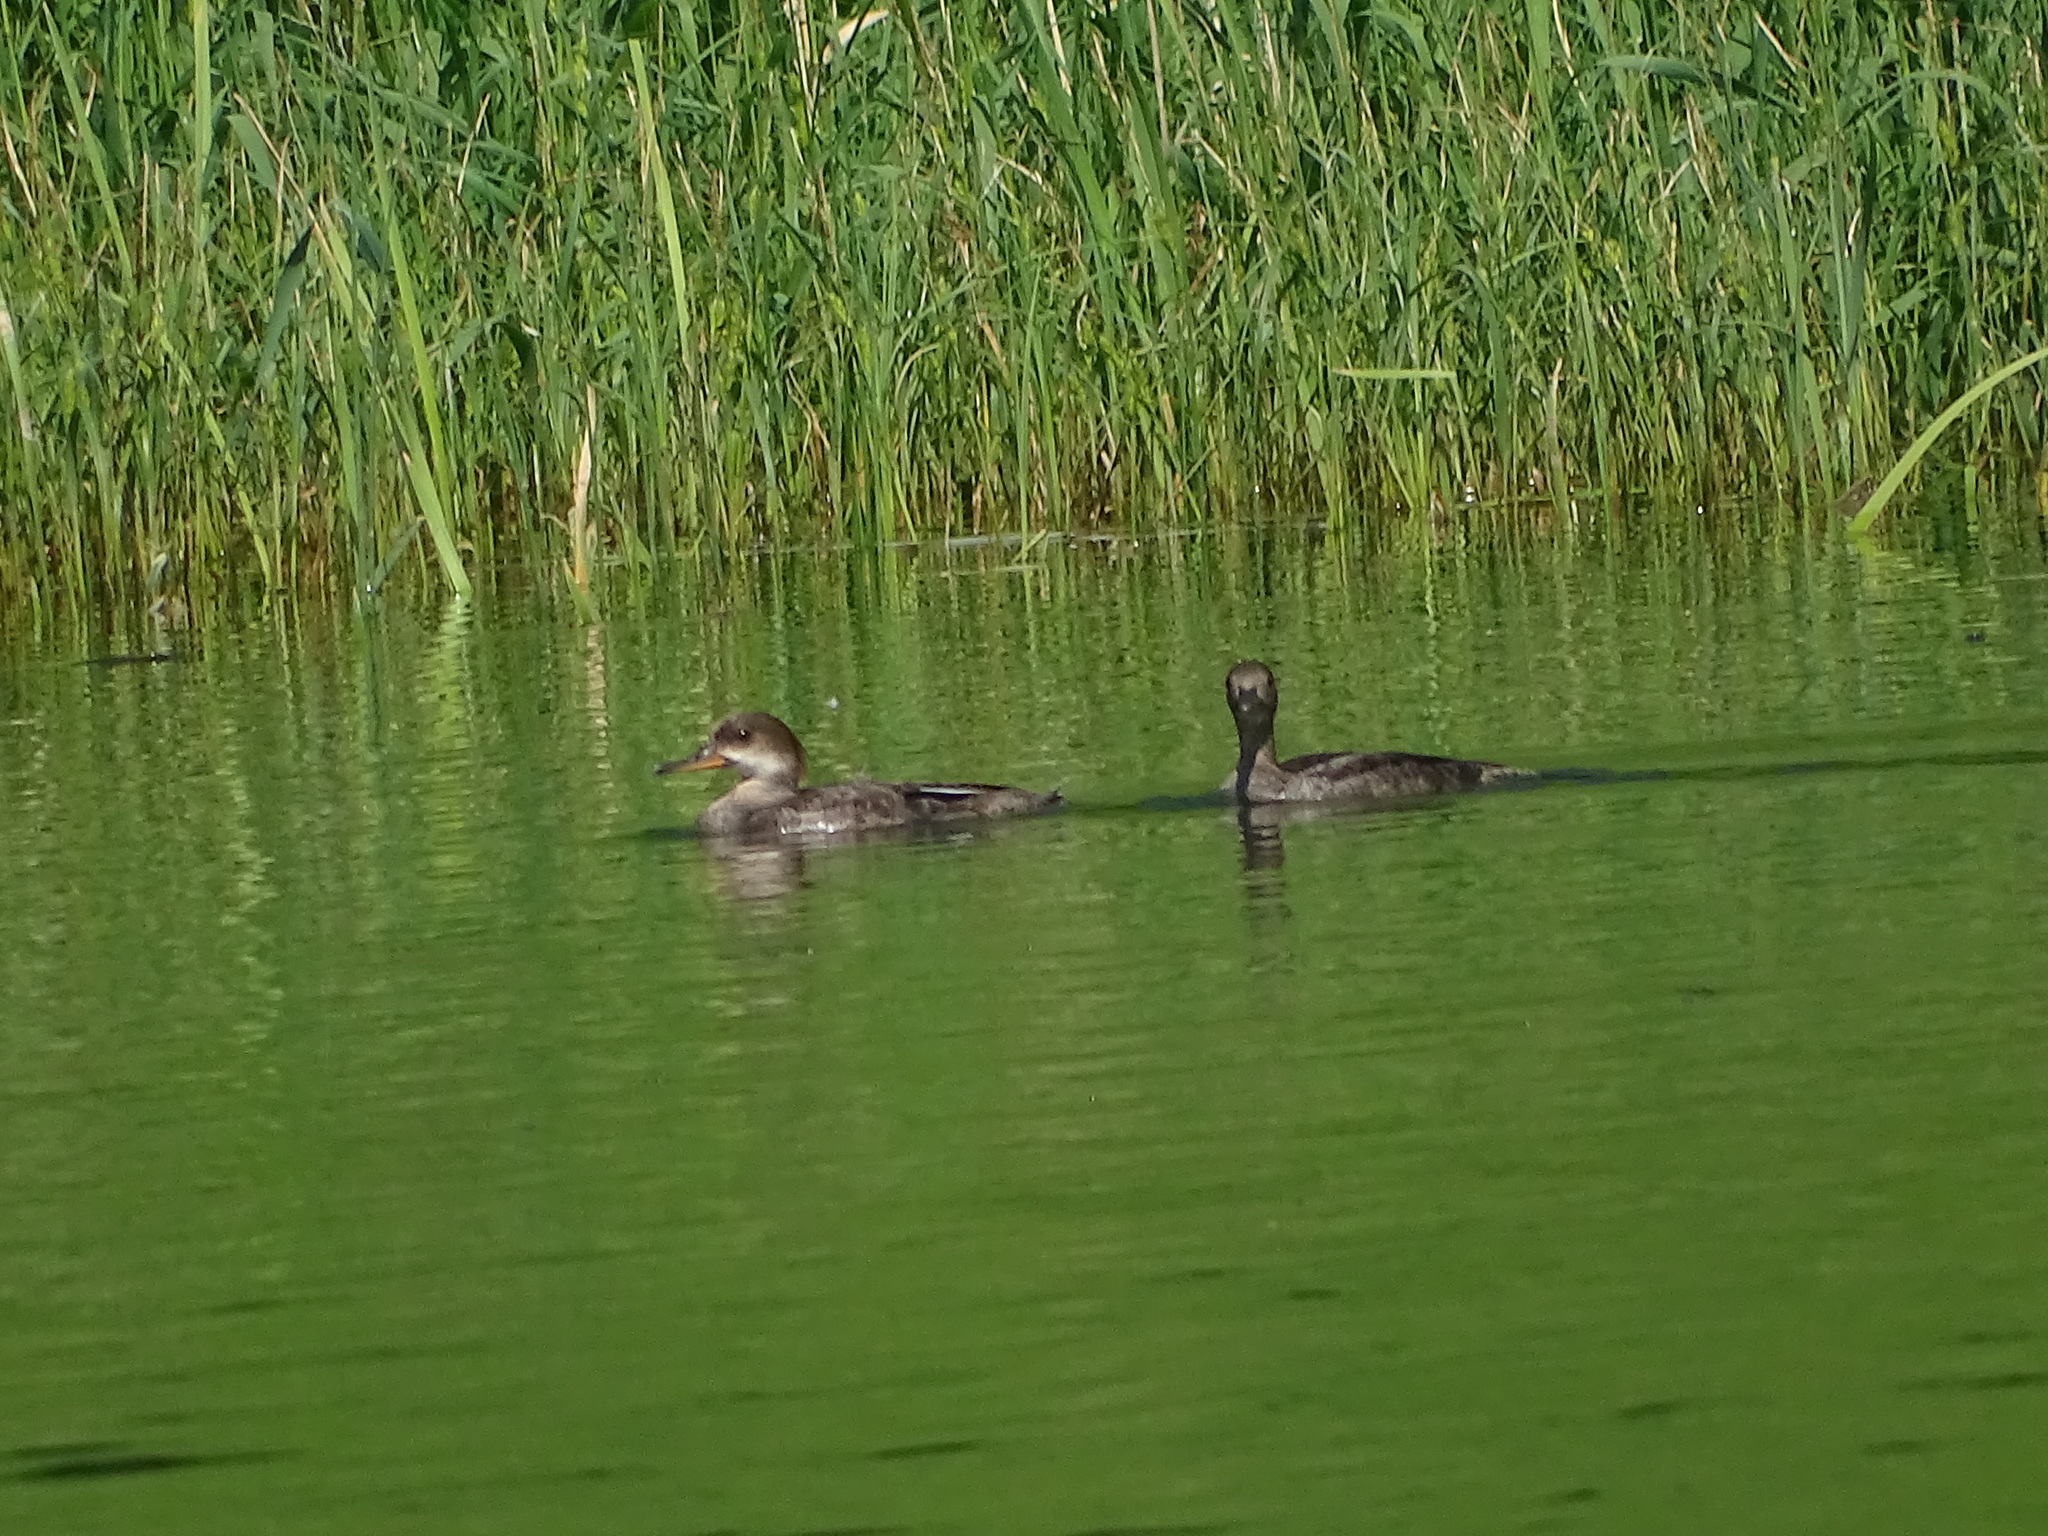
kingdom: Animalia
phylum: Chordata
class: Aves
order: Anseriformes
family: Anatidae
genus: Lophodytes
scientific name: Lophodytes cucullatus
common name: Hooded merganser
